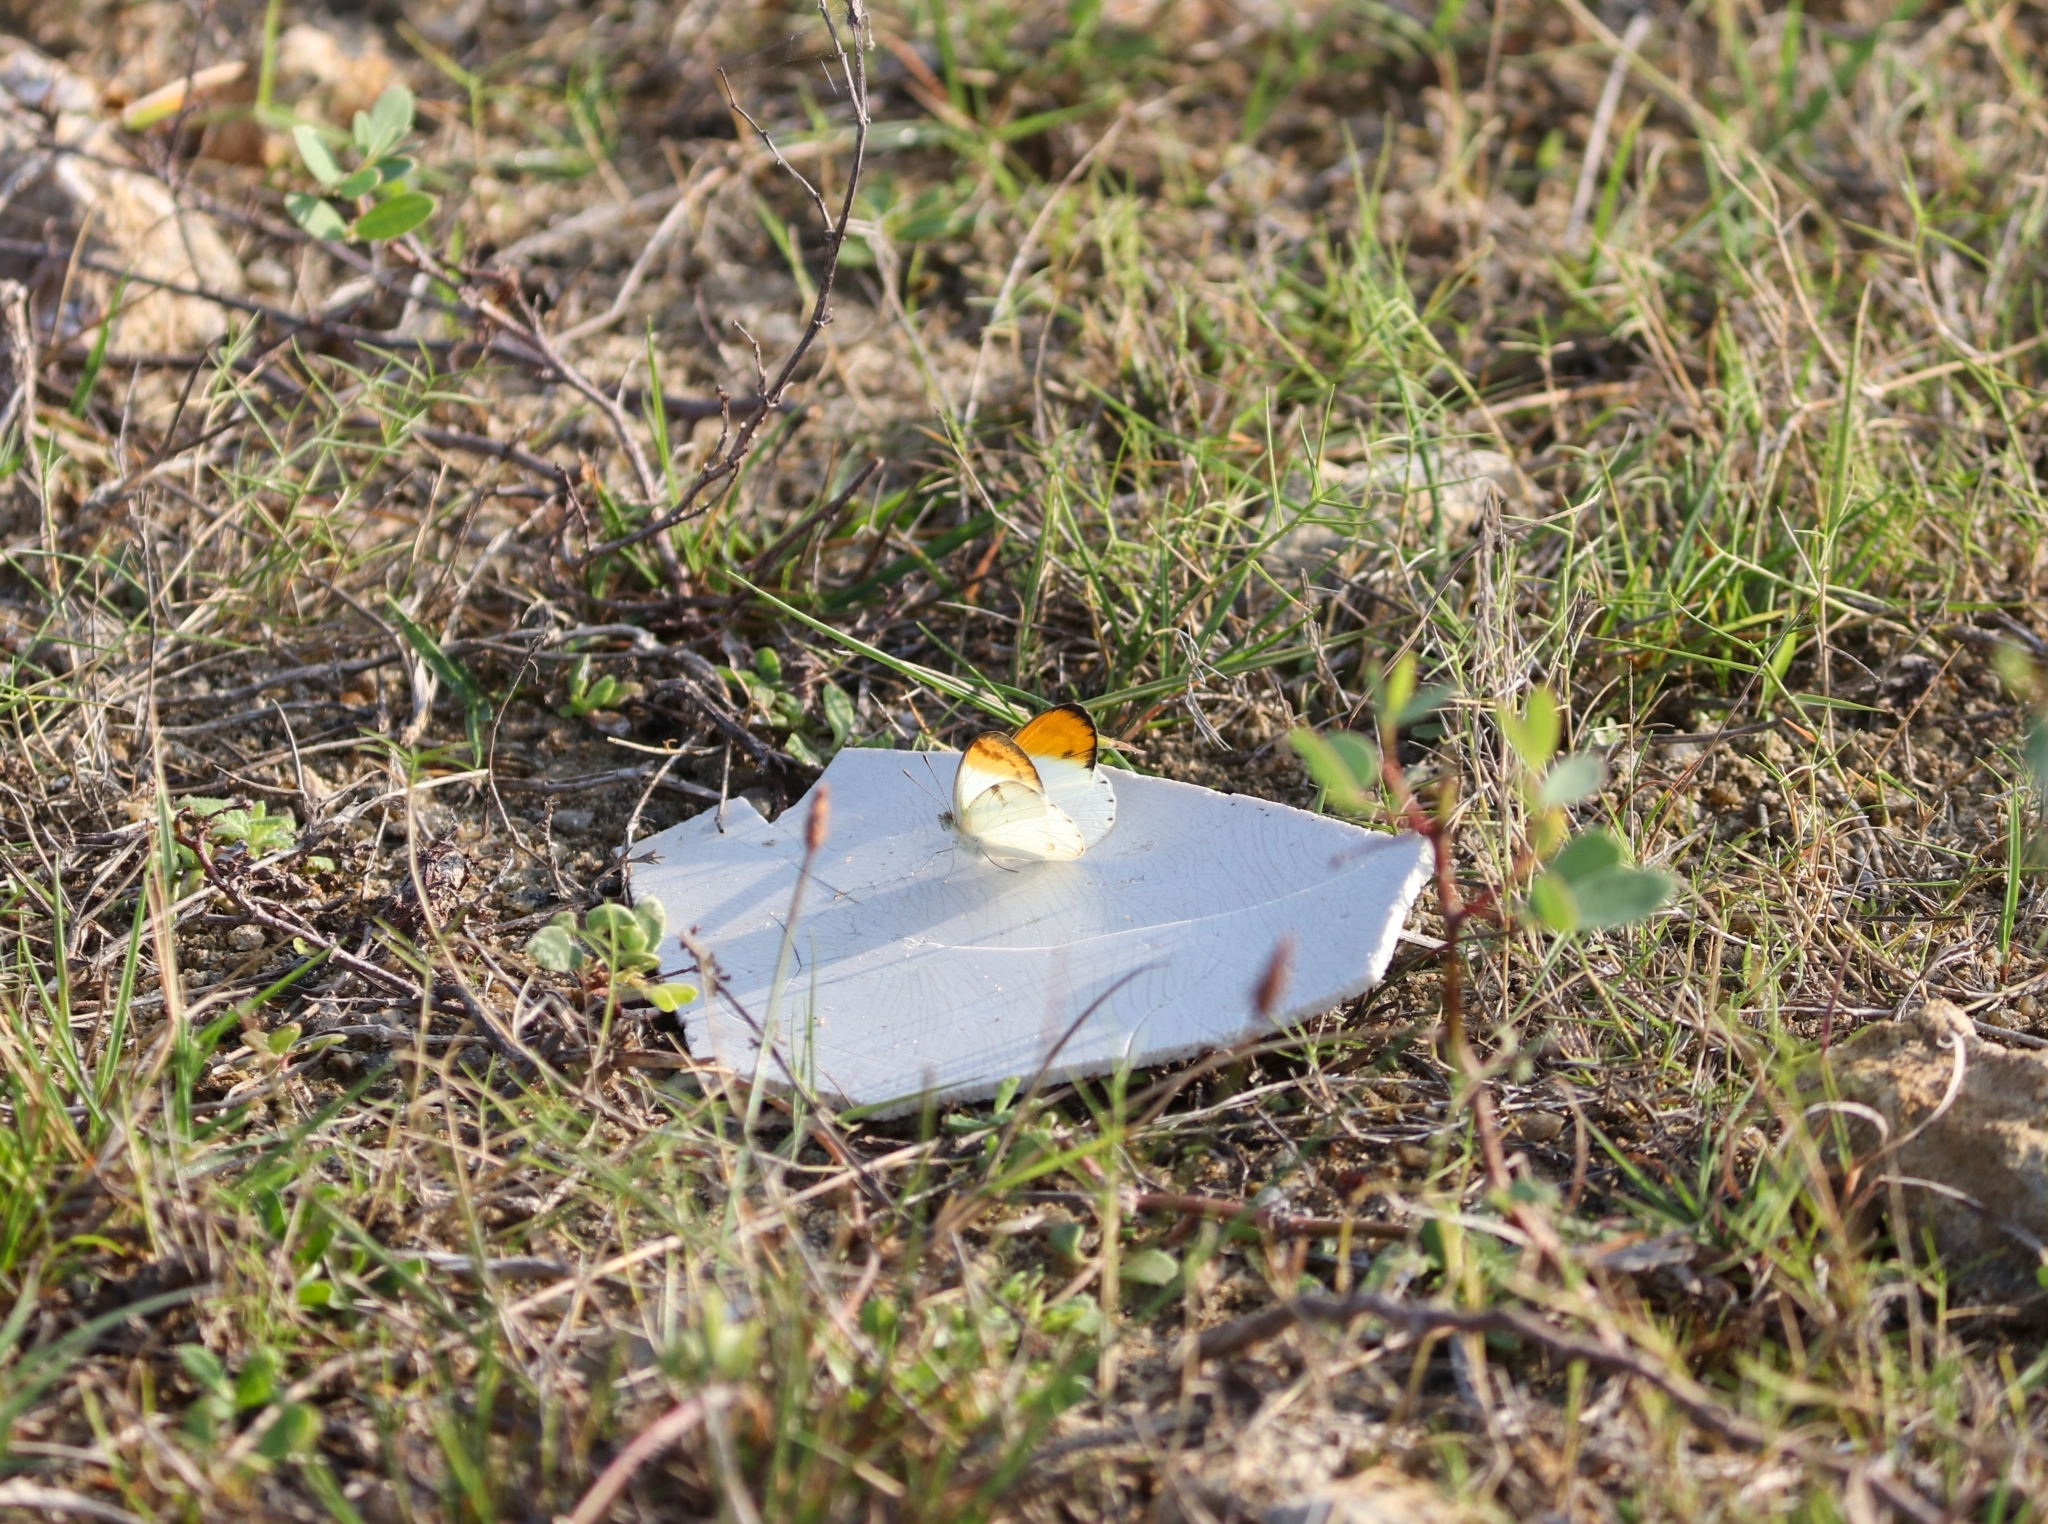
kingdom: Animalia
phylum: Arthropoda
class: Insecta
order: Lepidoptera
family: Pieridae
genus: Colotis
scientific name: Colotis aurora
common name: Plain orange-tip
